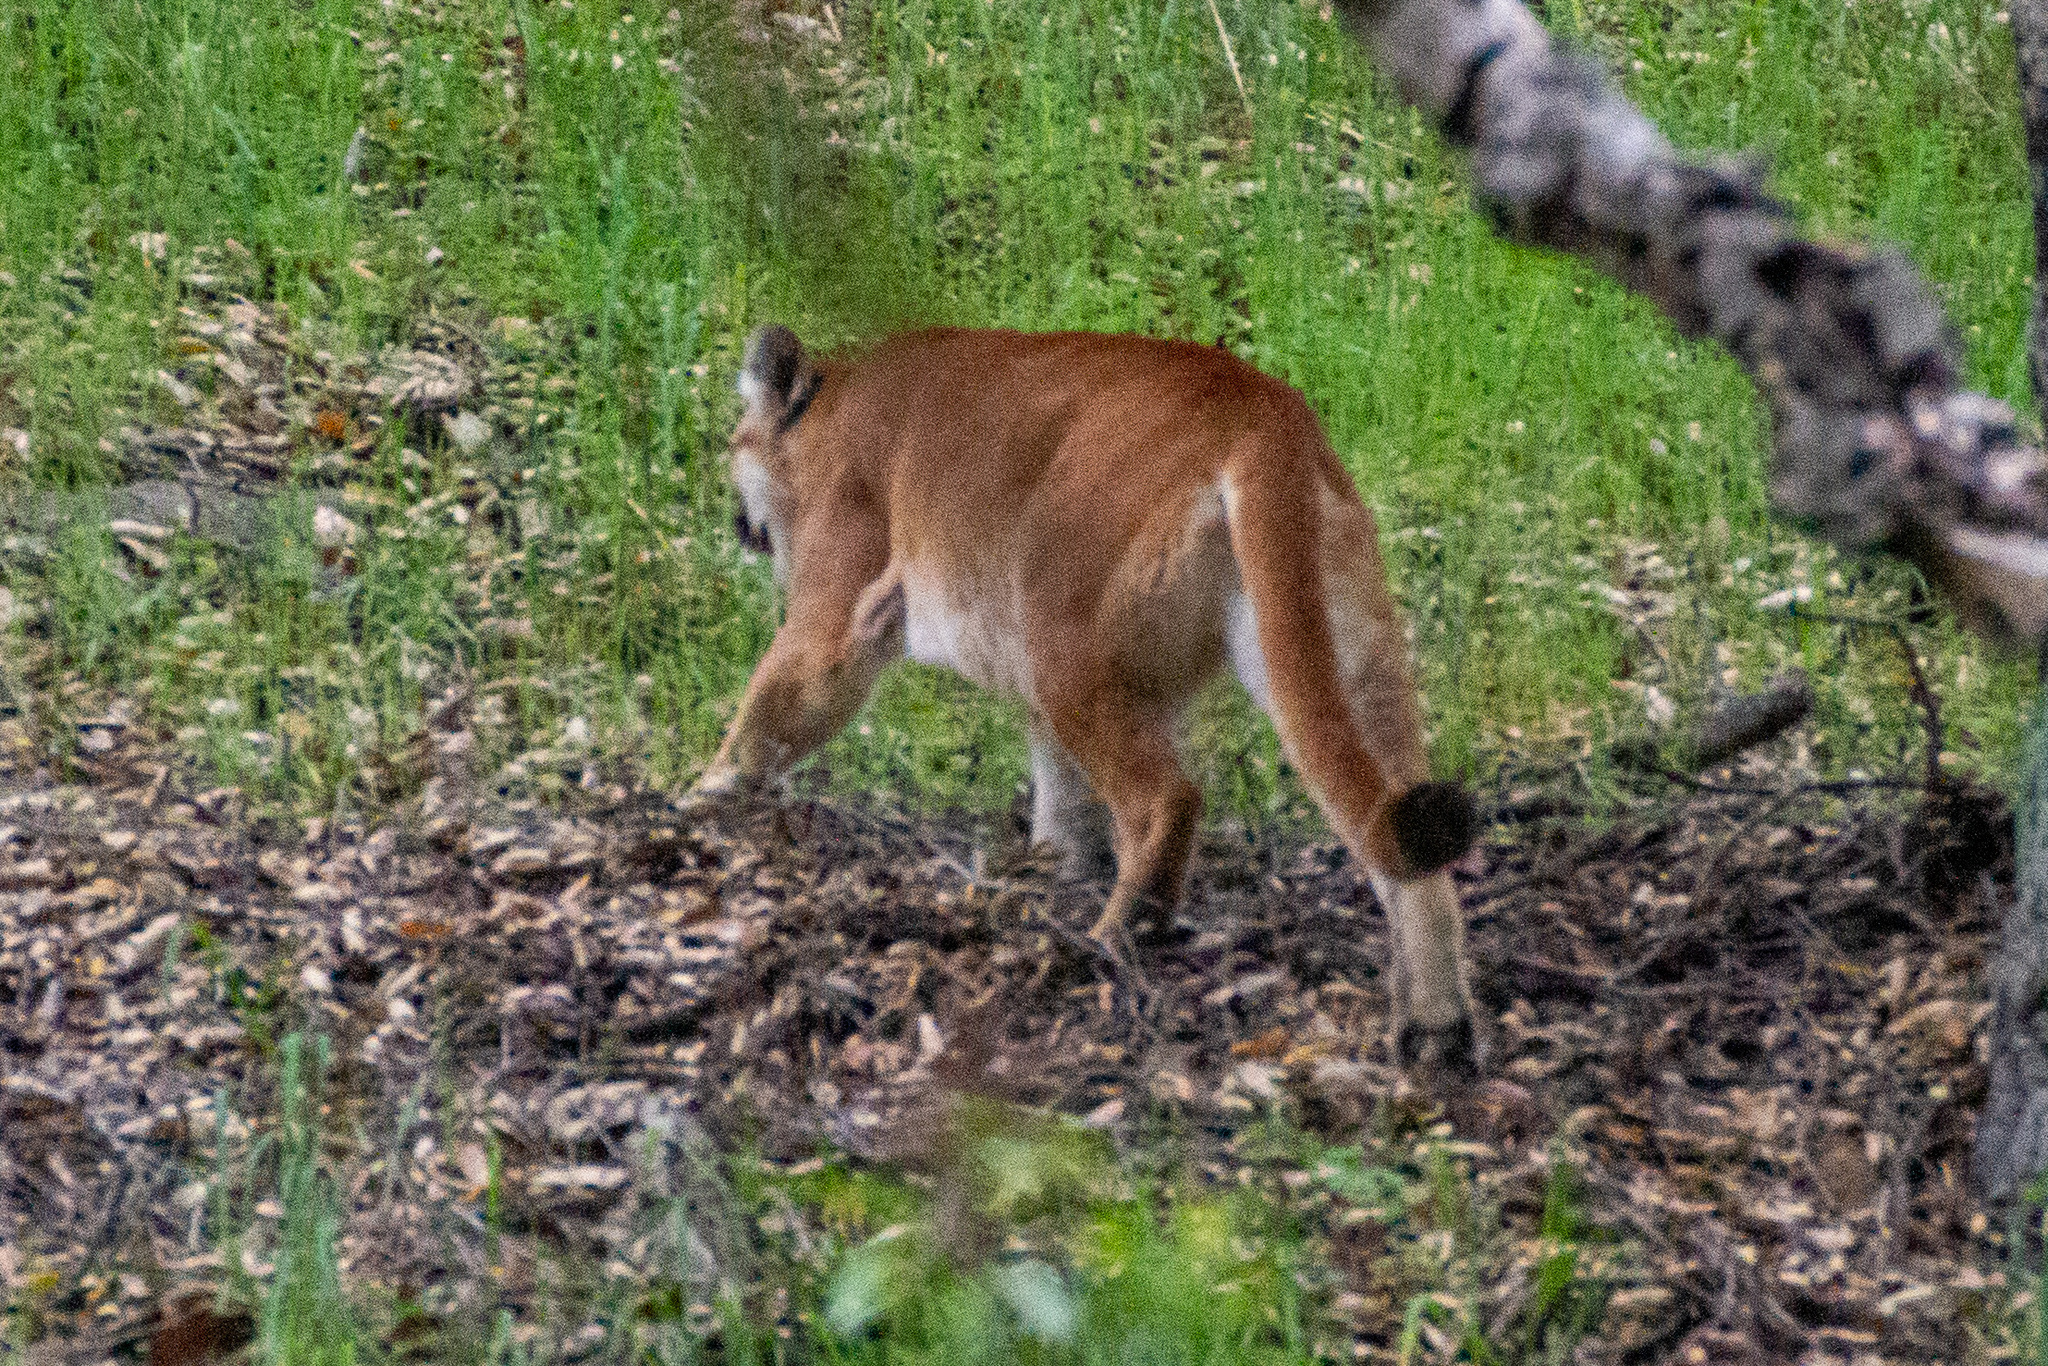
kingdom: Animalia
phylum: Chordata
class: Mammalia
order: Carnivora
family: Felidae
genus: Puma
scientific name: Puma concolor
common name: Puma
